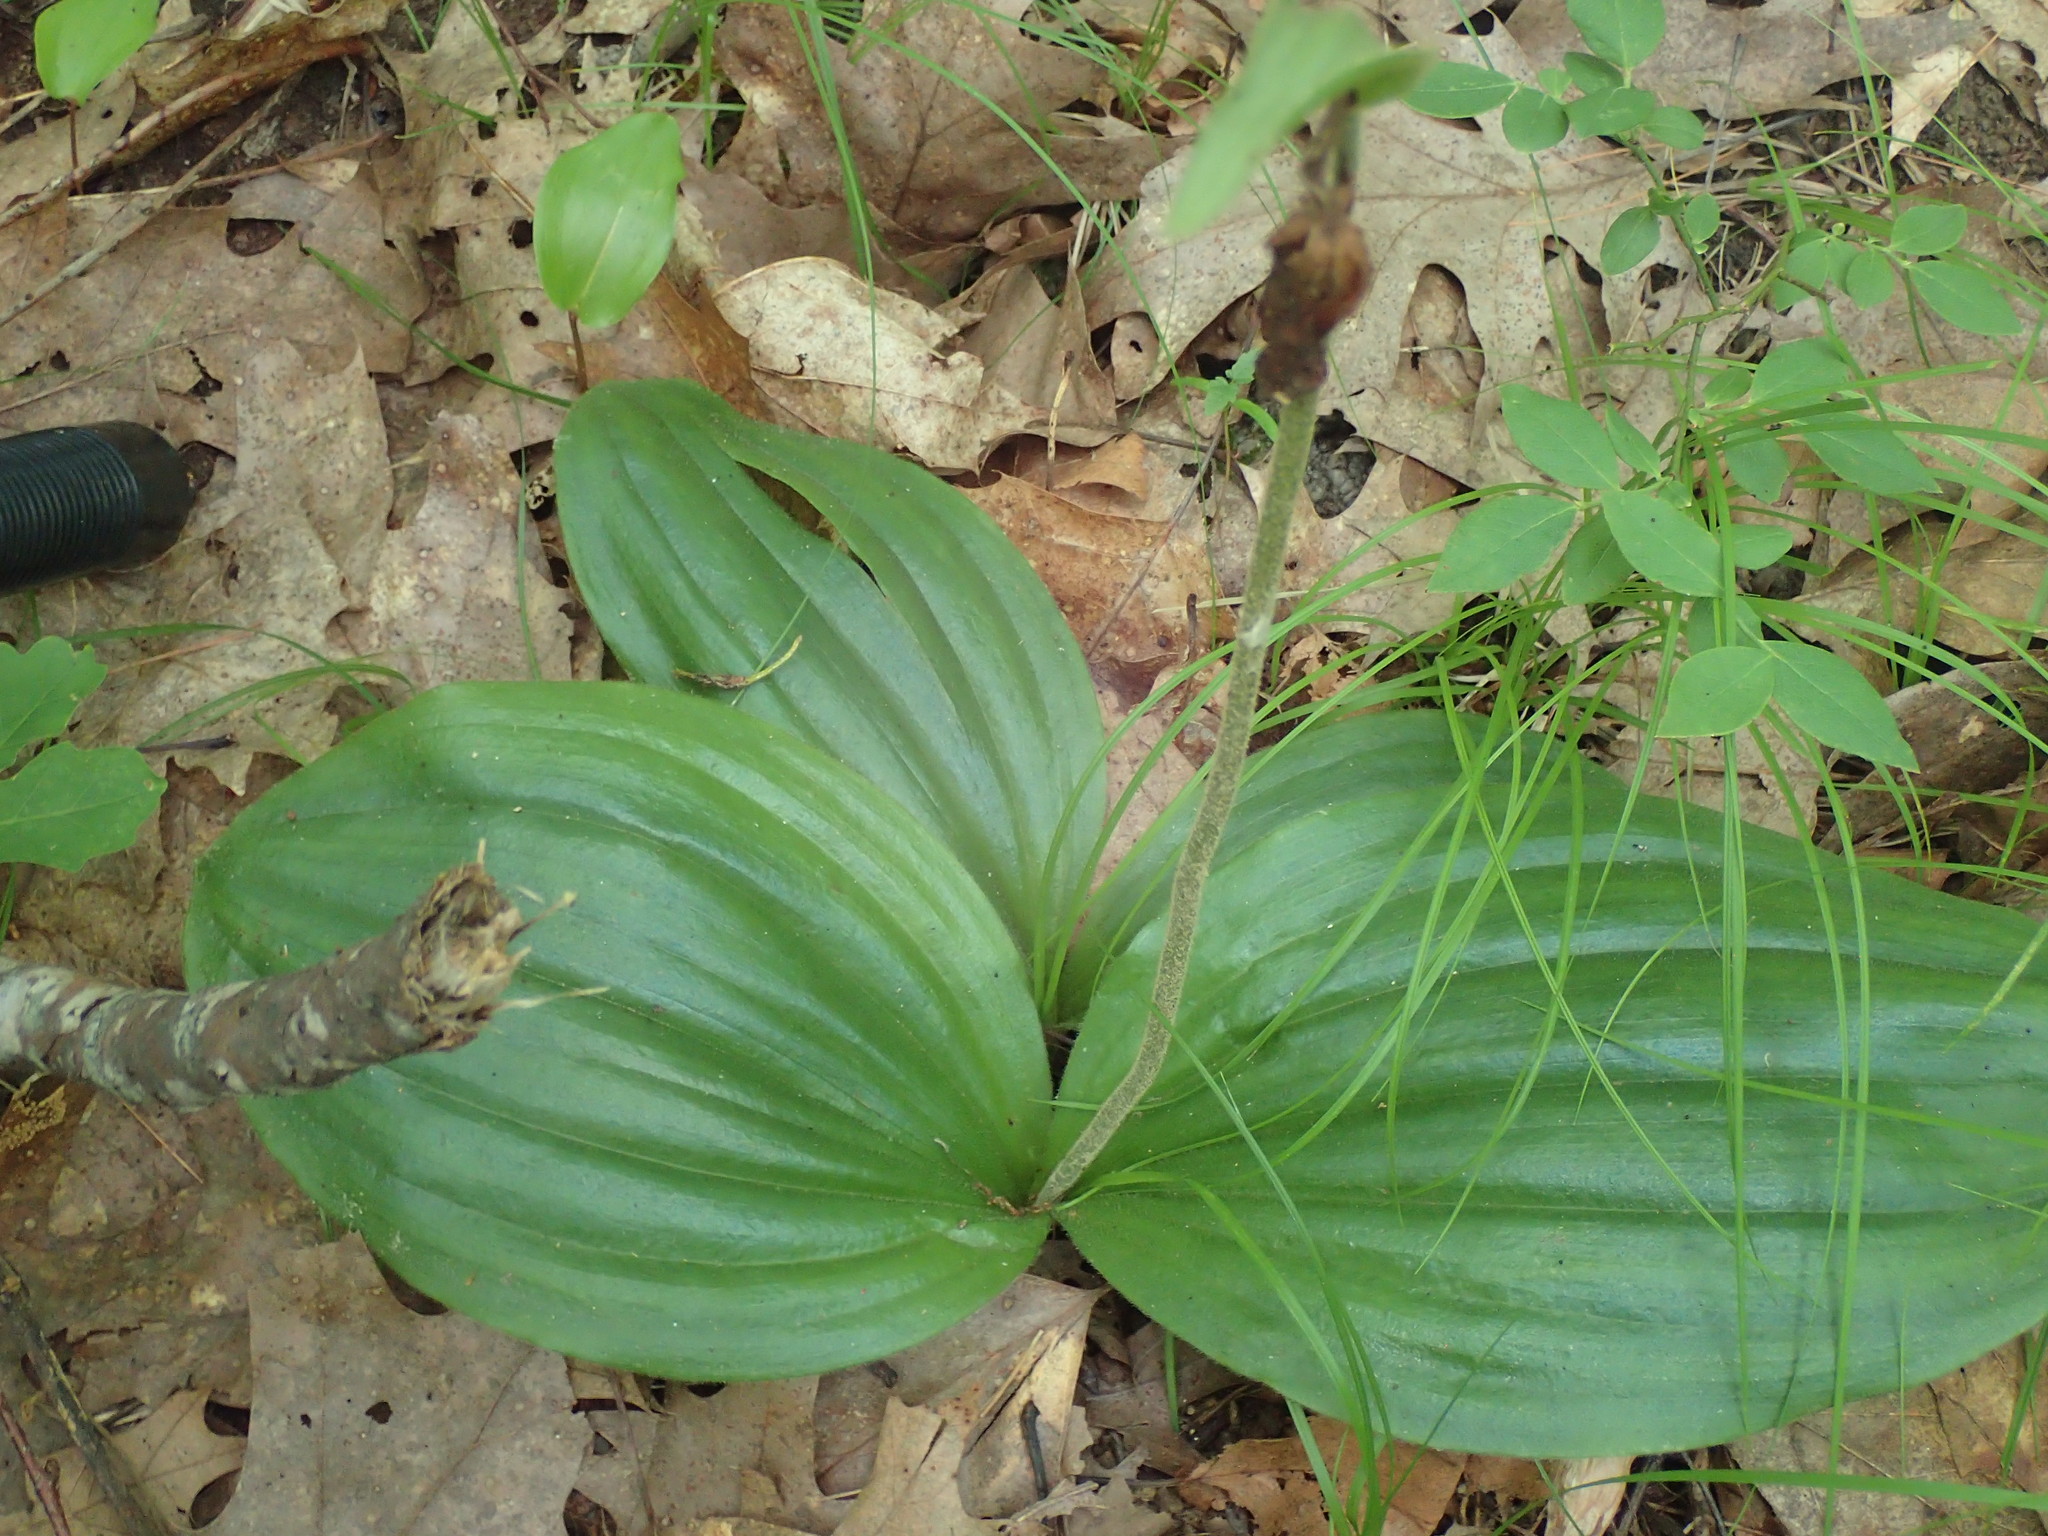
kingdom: Plantae
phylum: Tracheophyta
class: Liliopsida
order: Asparagales
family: Orchidaceae
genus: Cypripedium
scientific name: Cypripedium acaule
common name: Pink lady's-slipper
